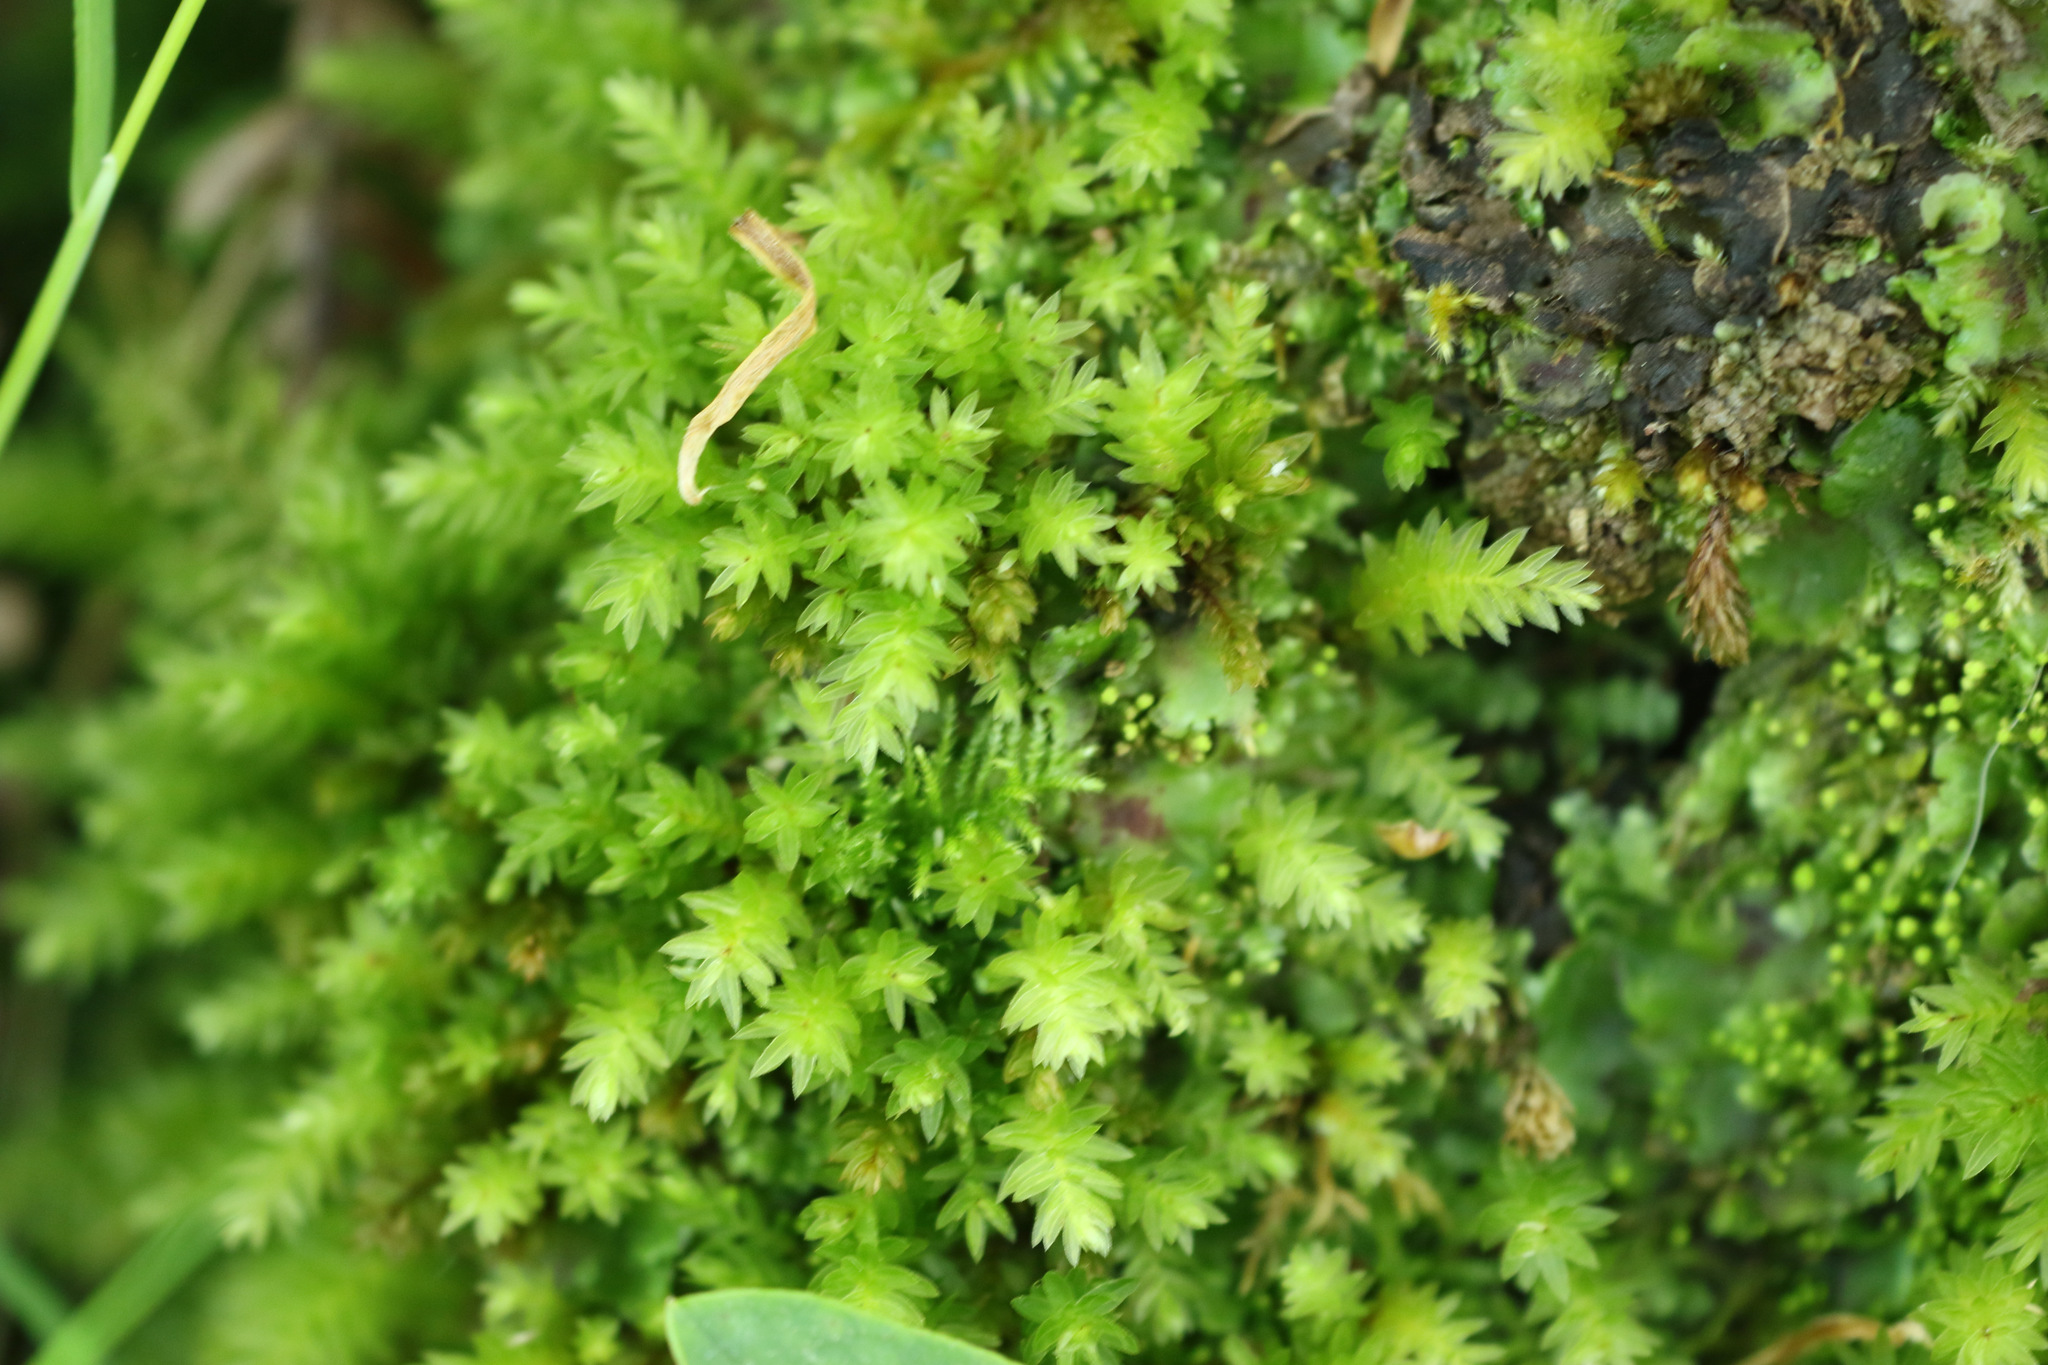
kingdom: Plantae
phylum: Bryophyta
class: Bryopsida
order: Bryales
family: Mniaceae
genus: Mnium
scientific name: Mnium hornum
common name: Swan's-neck leafy moss
